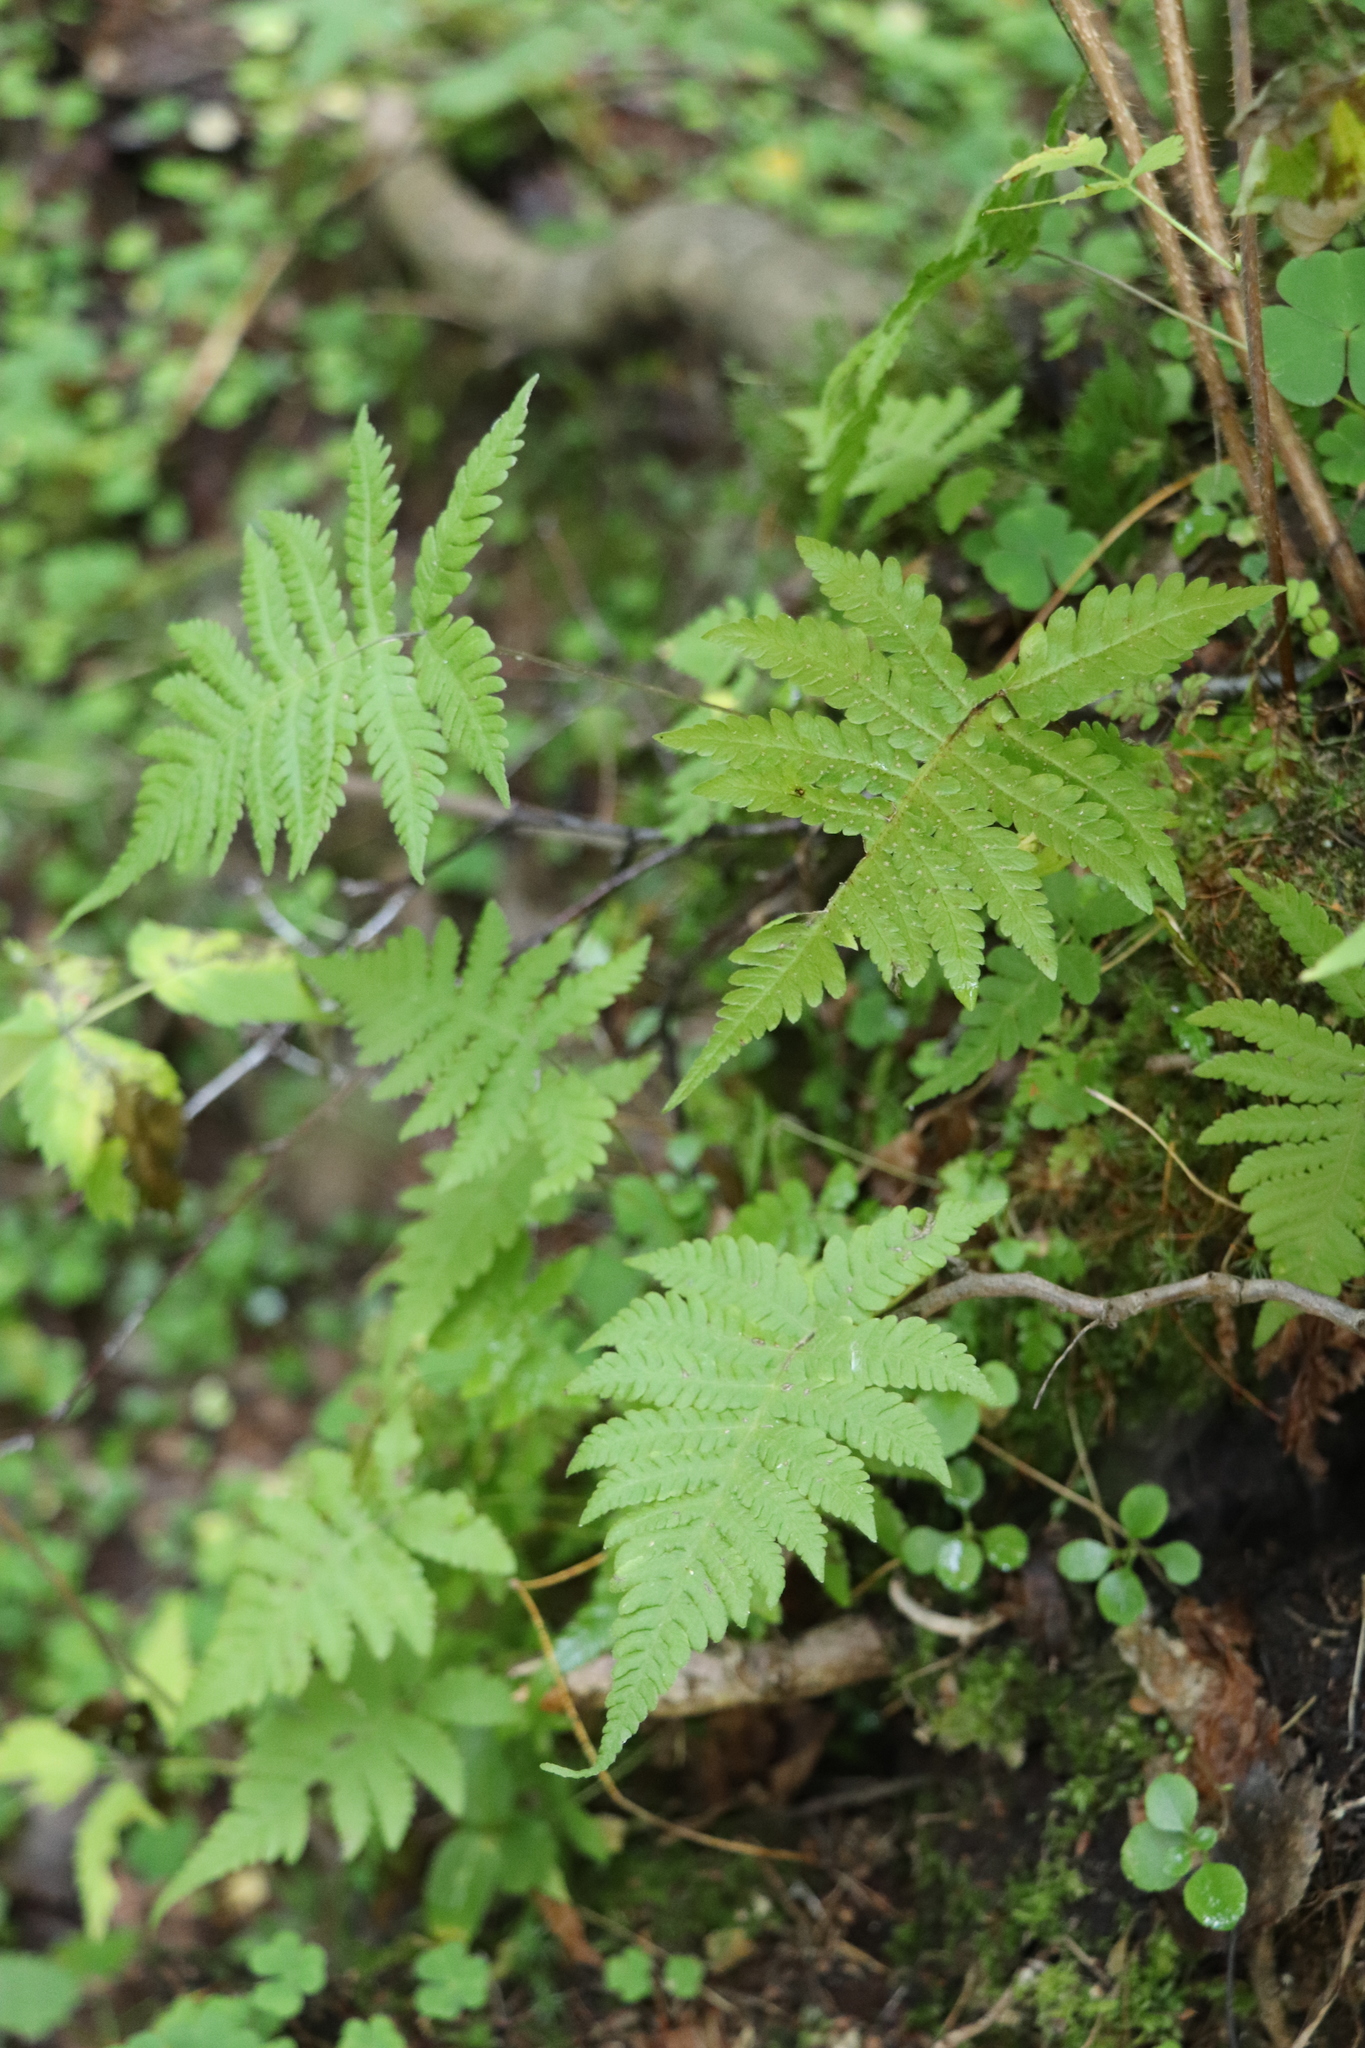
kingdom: Plantae
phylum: Tracheophyta
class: Polypodiopsida
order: Polypodiales
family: Thelypteridaceae
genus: Phegopteris
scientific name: Phegopteris connectilis
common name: Beech fern
